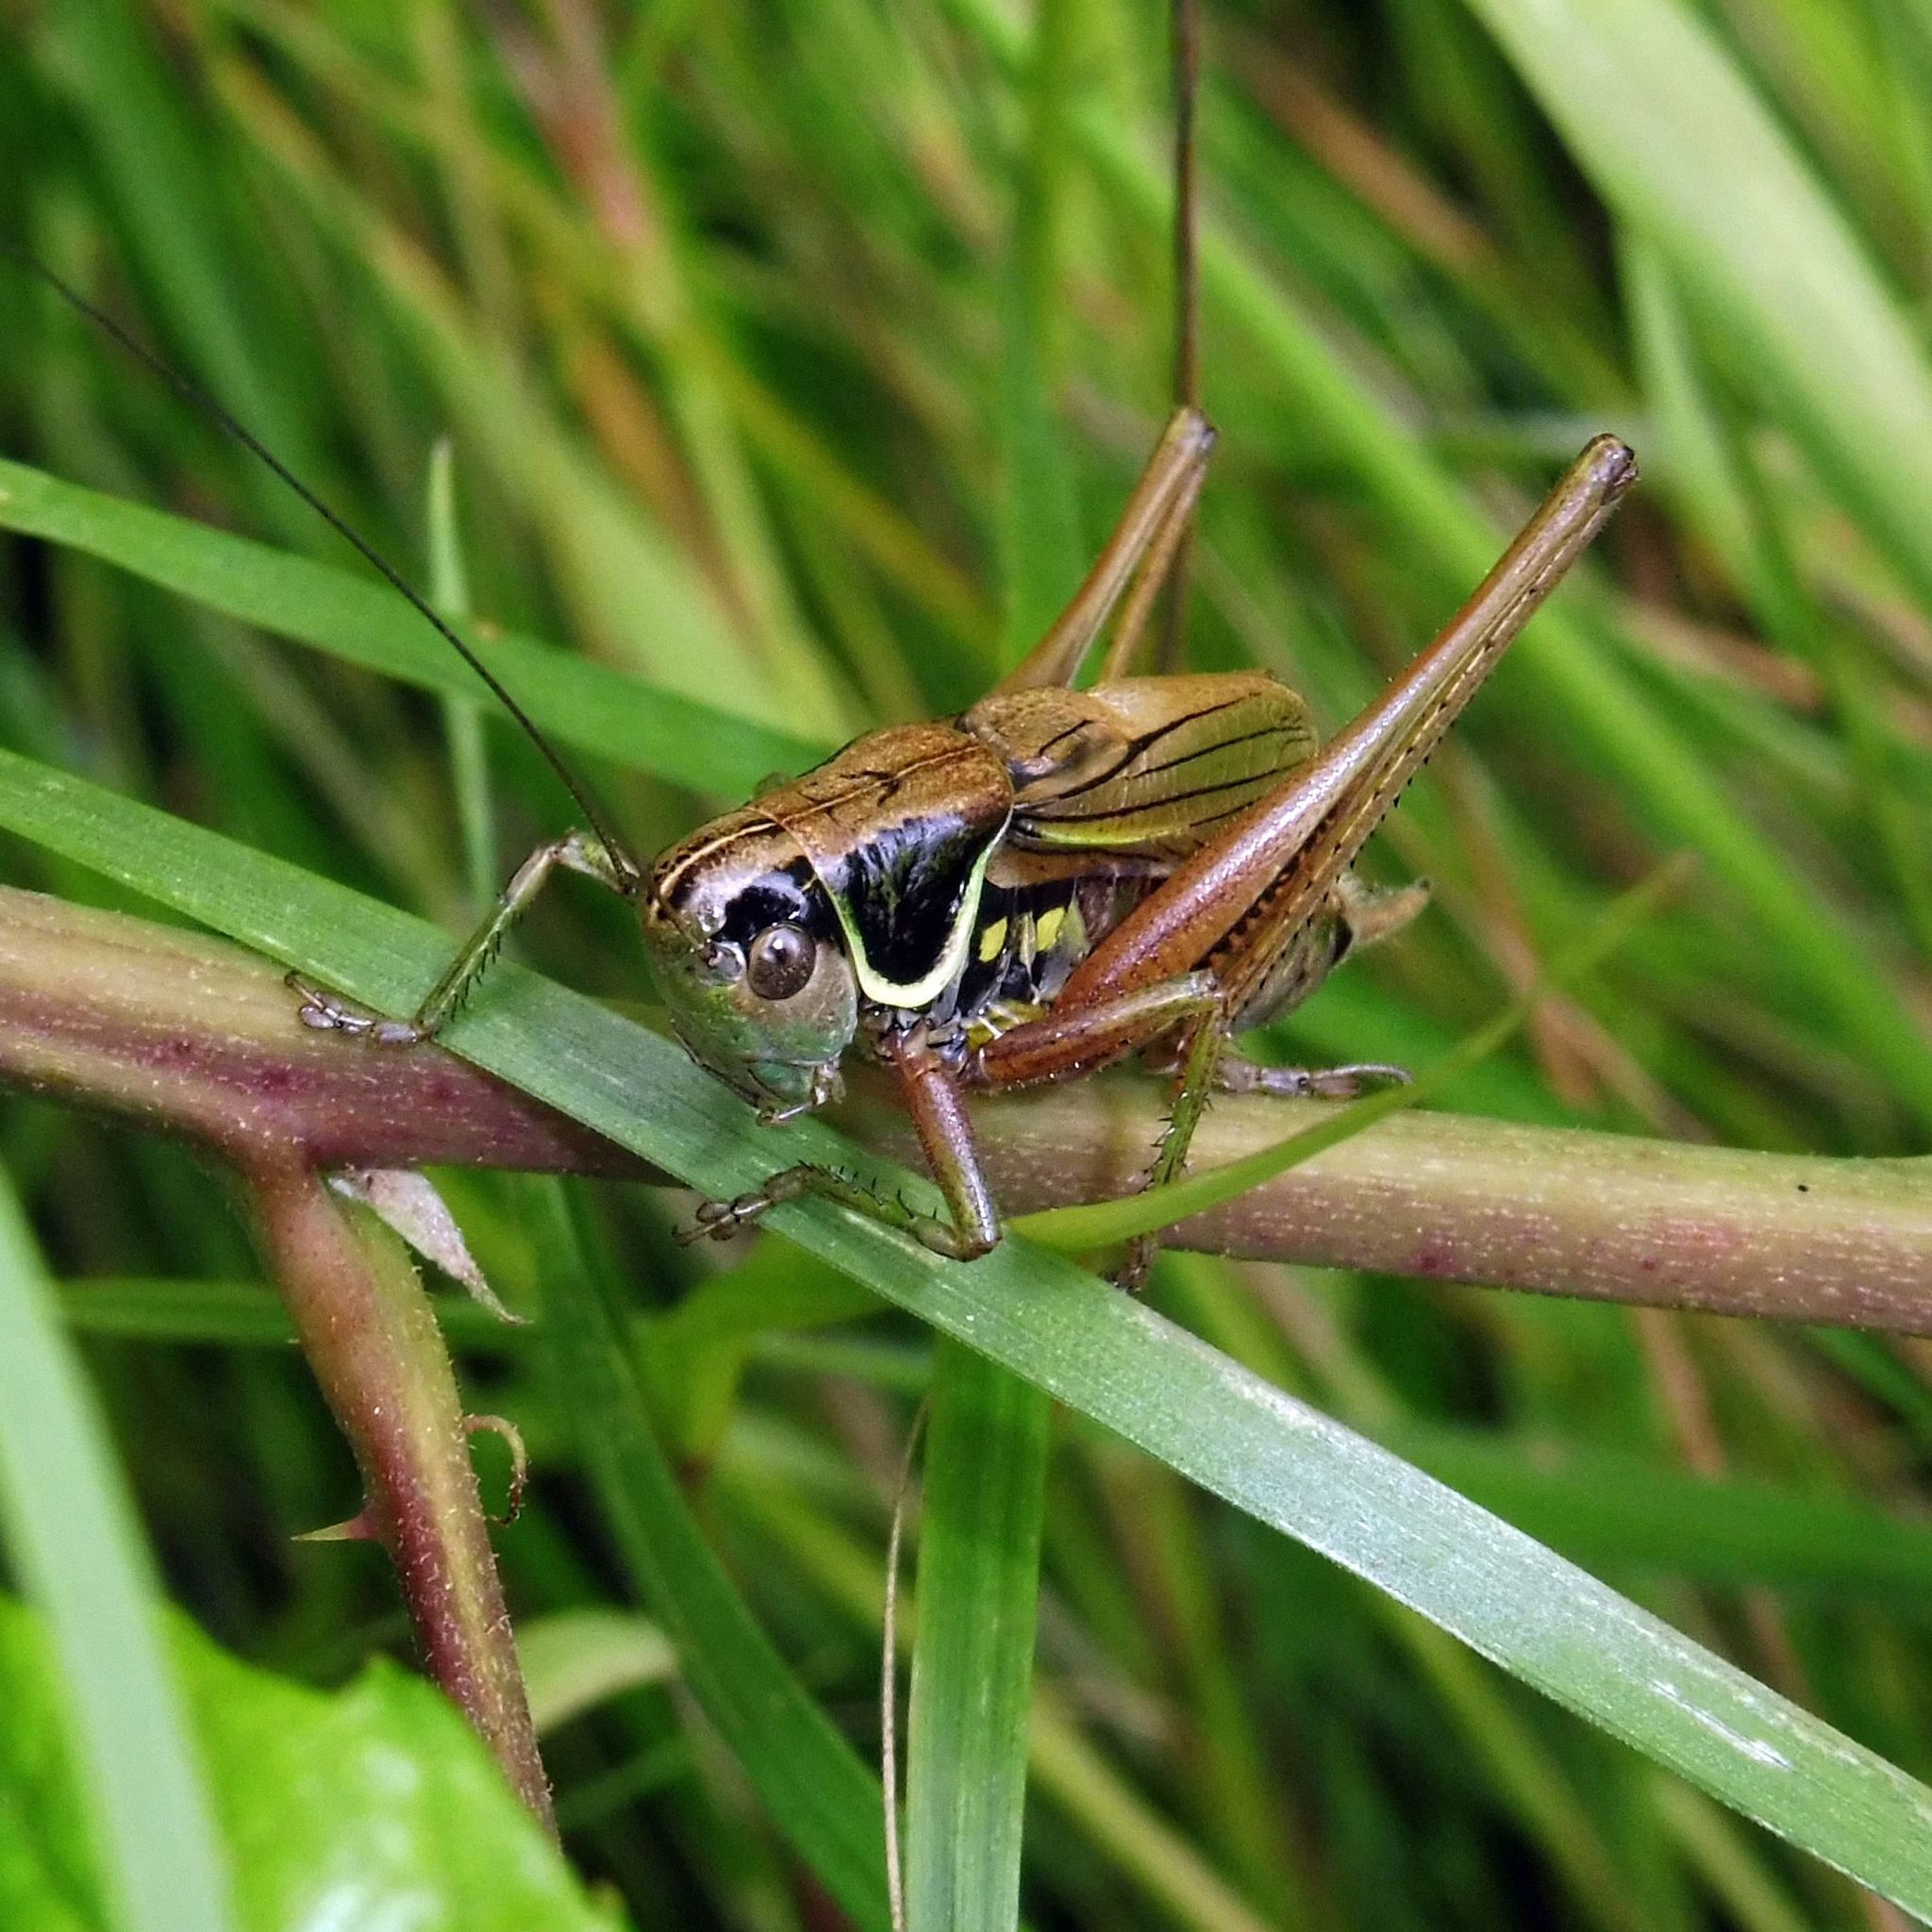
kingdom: Animalia
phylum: Arthropoda
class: Insecta
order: Orthoptera
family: Tettigoniidae
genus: Roeseliana
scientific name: Roeseliana roeselii
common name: Roesel's bush cricket
